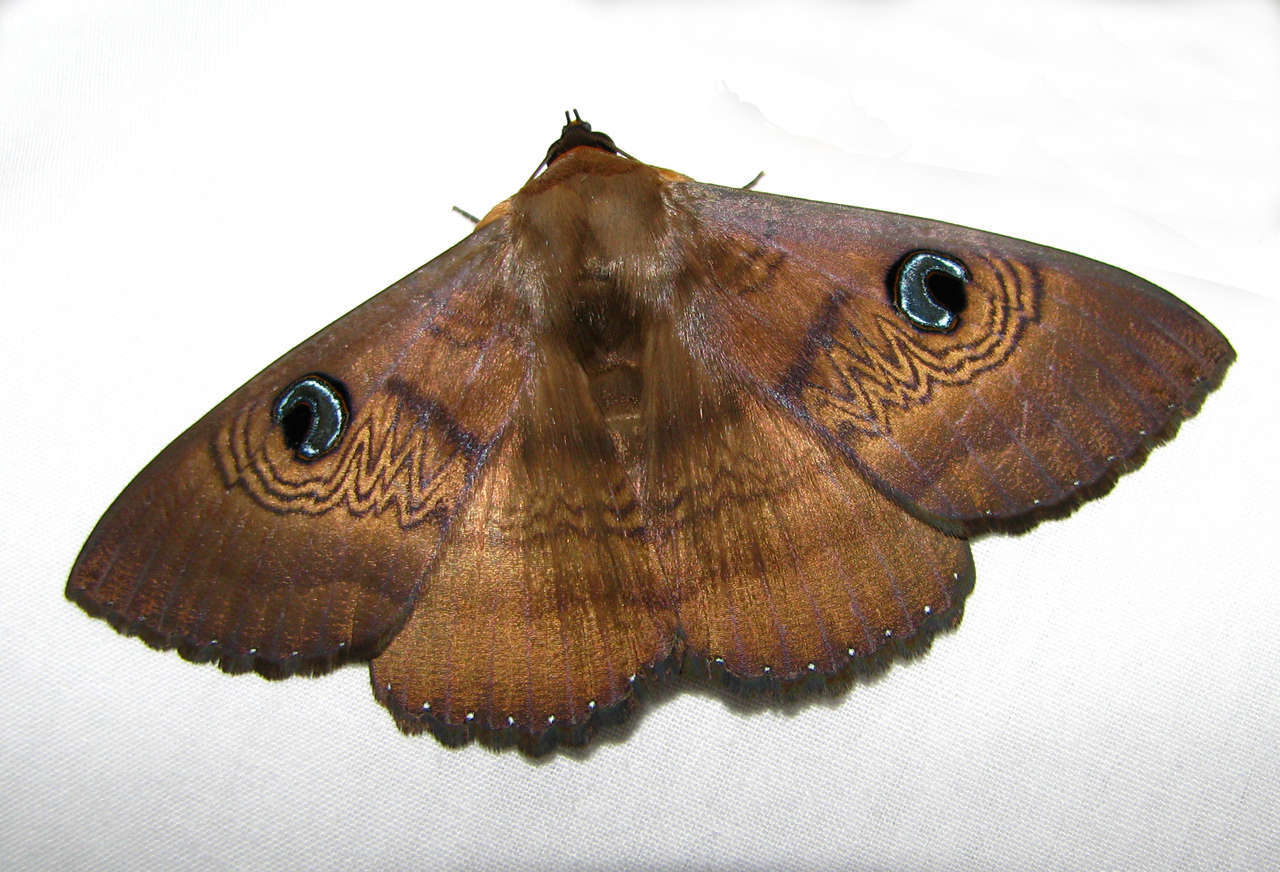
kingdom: Animalia
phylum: Arthropoda
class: Insecta
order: Lepidoptera
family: Erebidae
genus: Dasypodia
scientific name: Dasypodia selenophora
